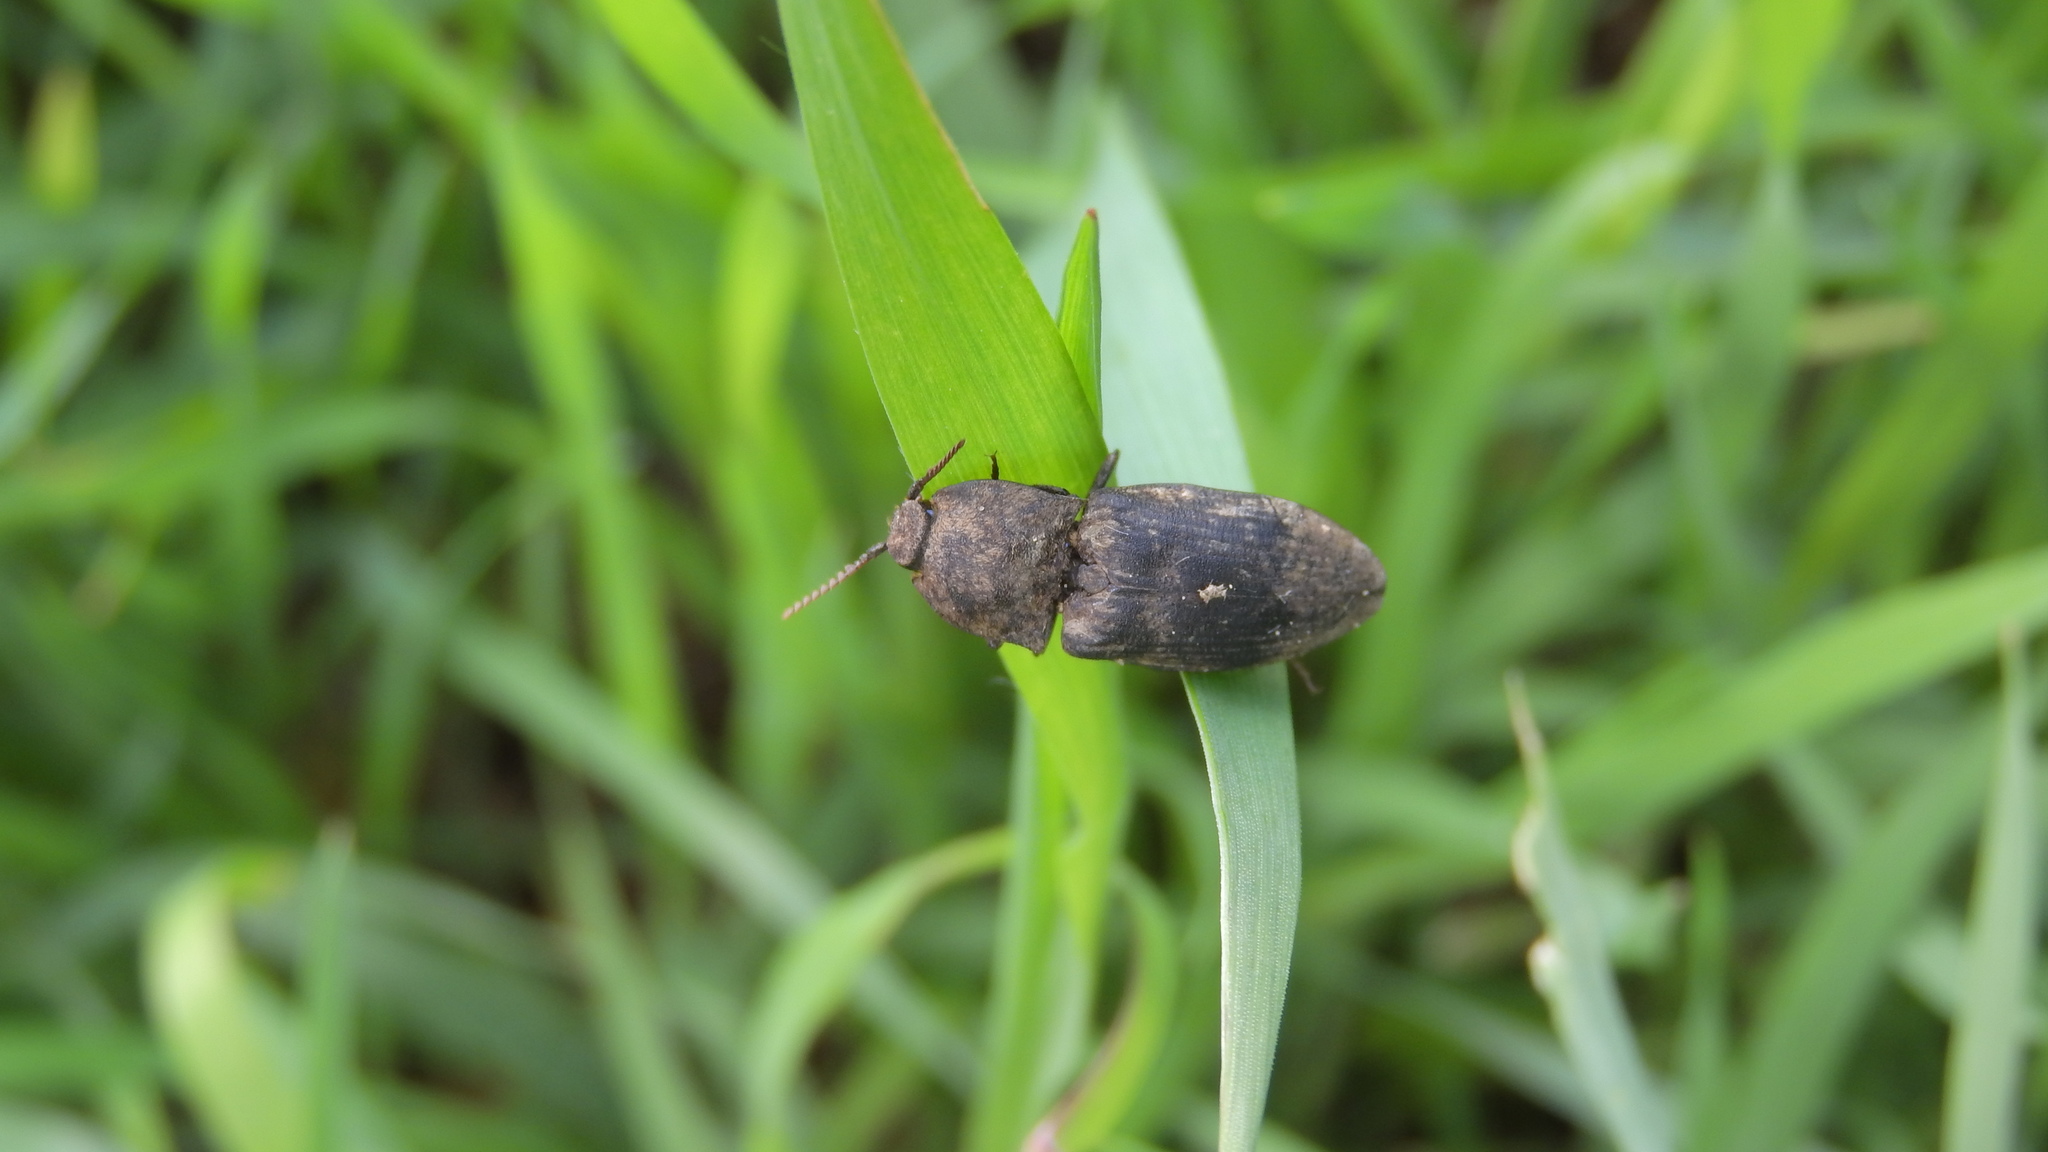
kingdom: Animalia
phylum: Arthropoda
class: Insecta
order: Coleoptera
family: Elateridae
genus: Agrypnus
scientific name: Agrypnus murinus
